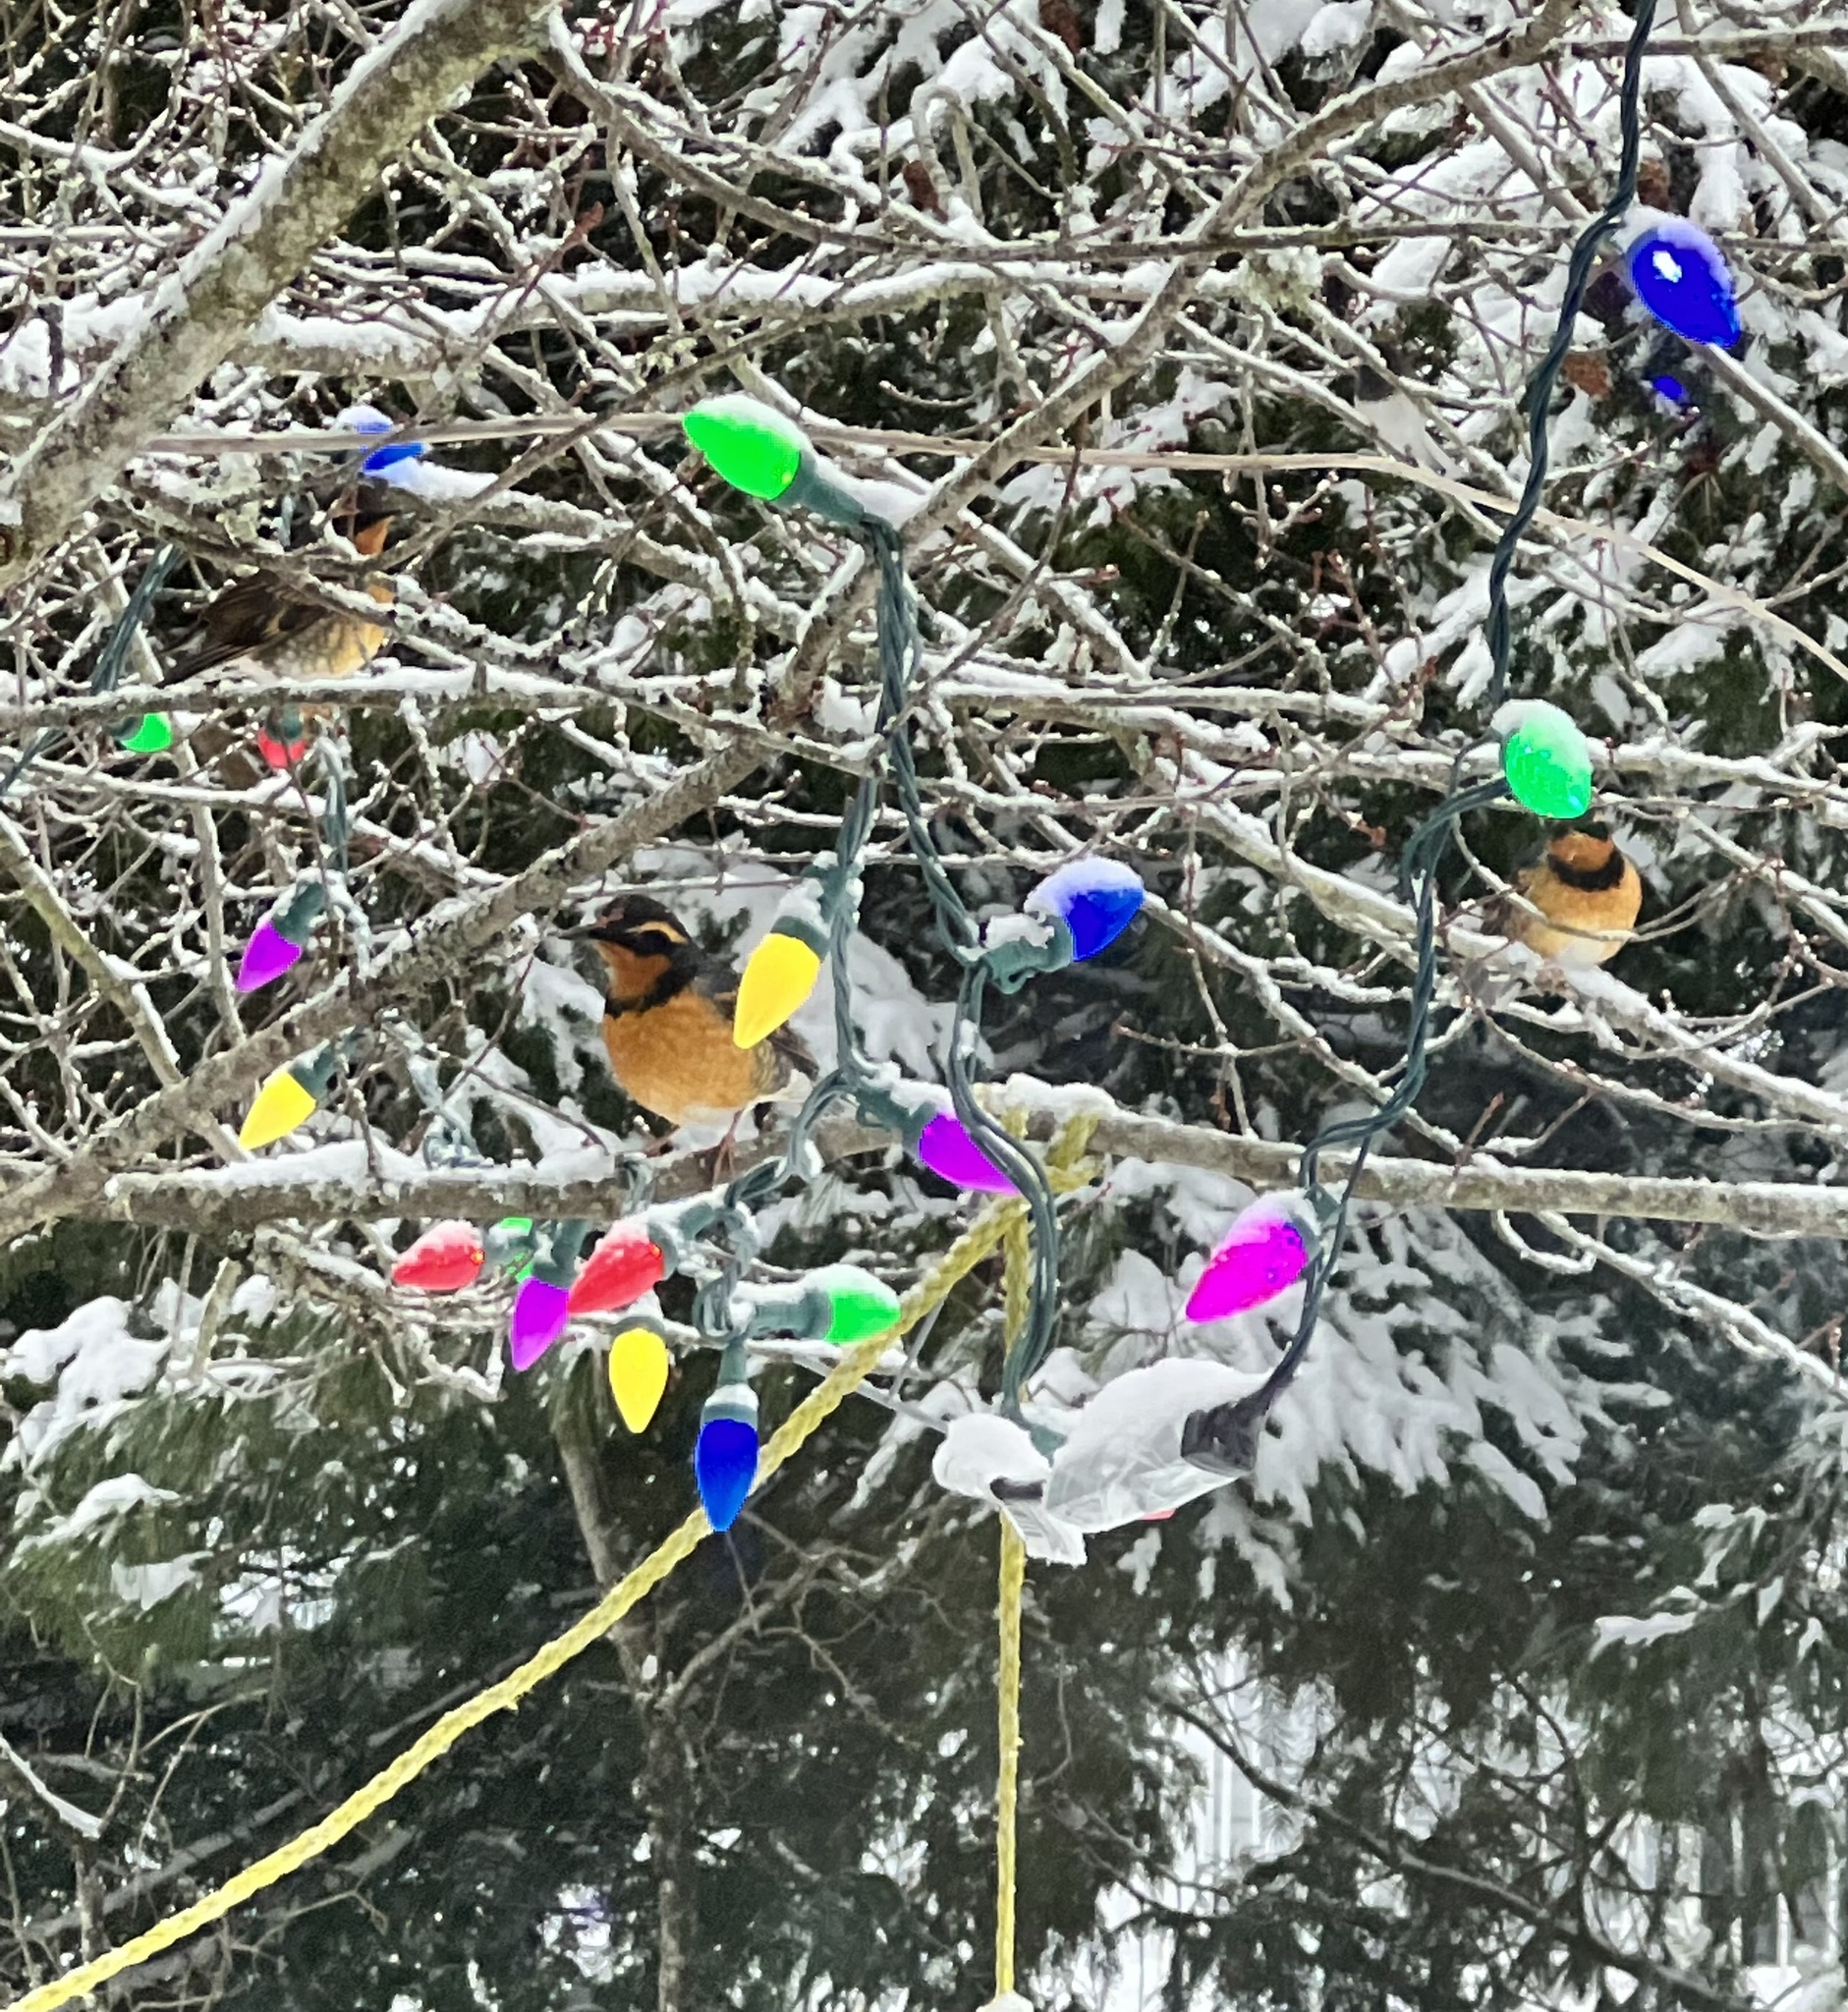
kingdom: Animalia
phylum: Chordata
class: Aves
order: Passeriformes
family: Turdidae
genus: Ixoreus
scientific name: Ixoreus naevius
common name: Varied thrush
